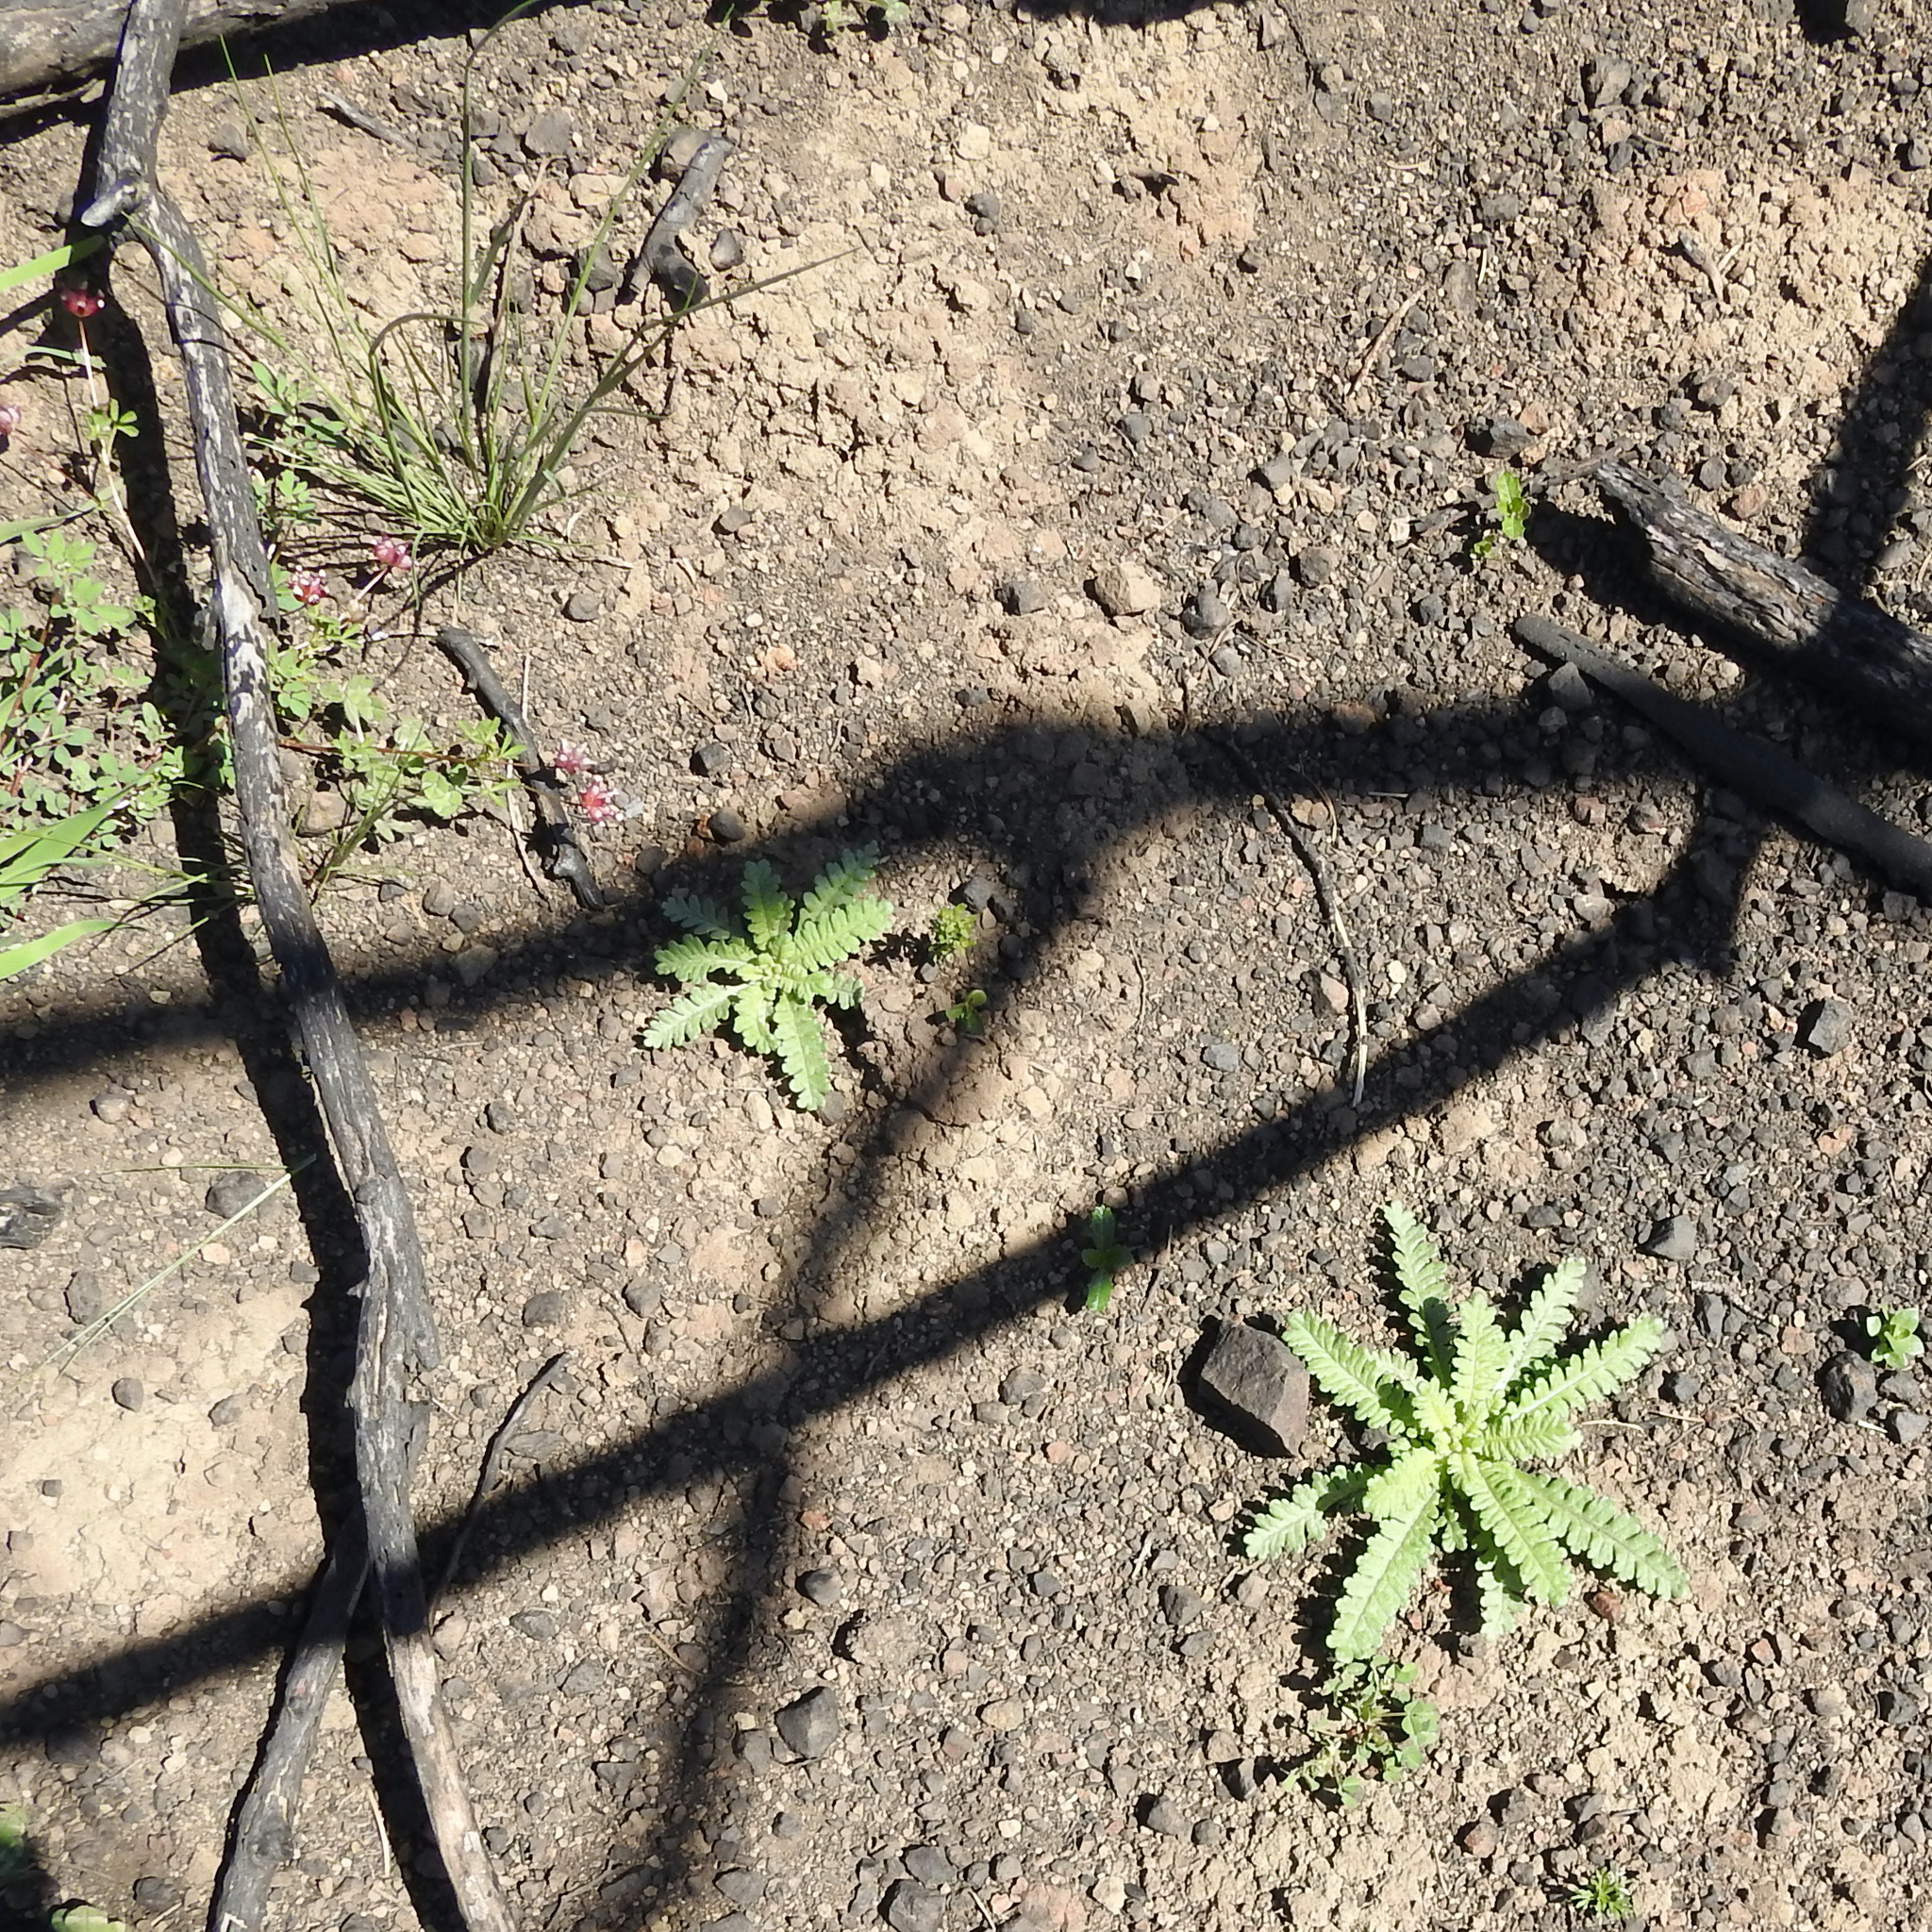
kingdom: Plantae
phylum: Tracheophyta
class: Magnoliopsida
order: Boraginales
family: Hydrophyllaceae
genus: Emmenanthe
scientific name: Emmenanthe penduliflora
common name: Whispering-bells
